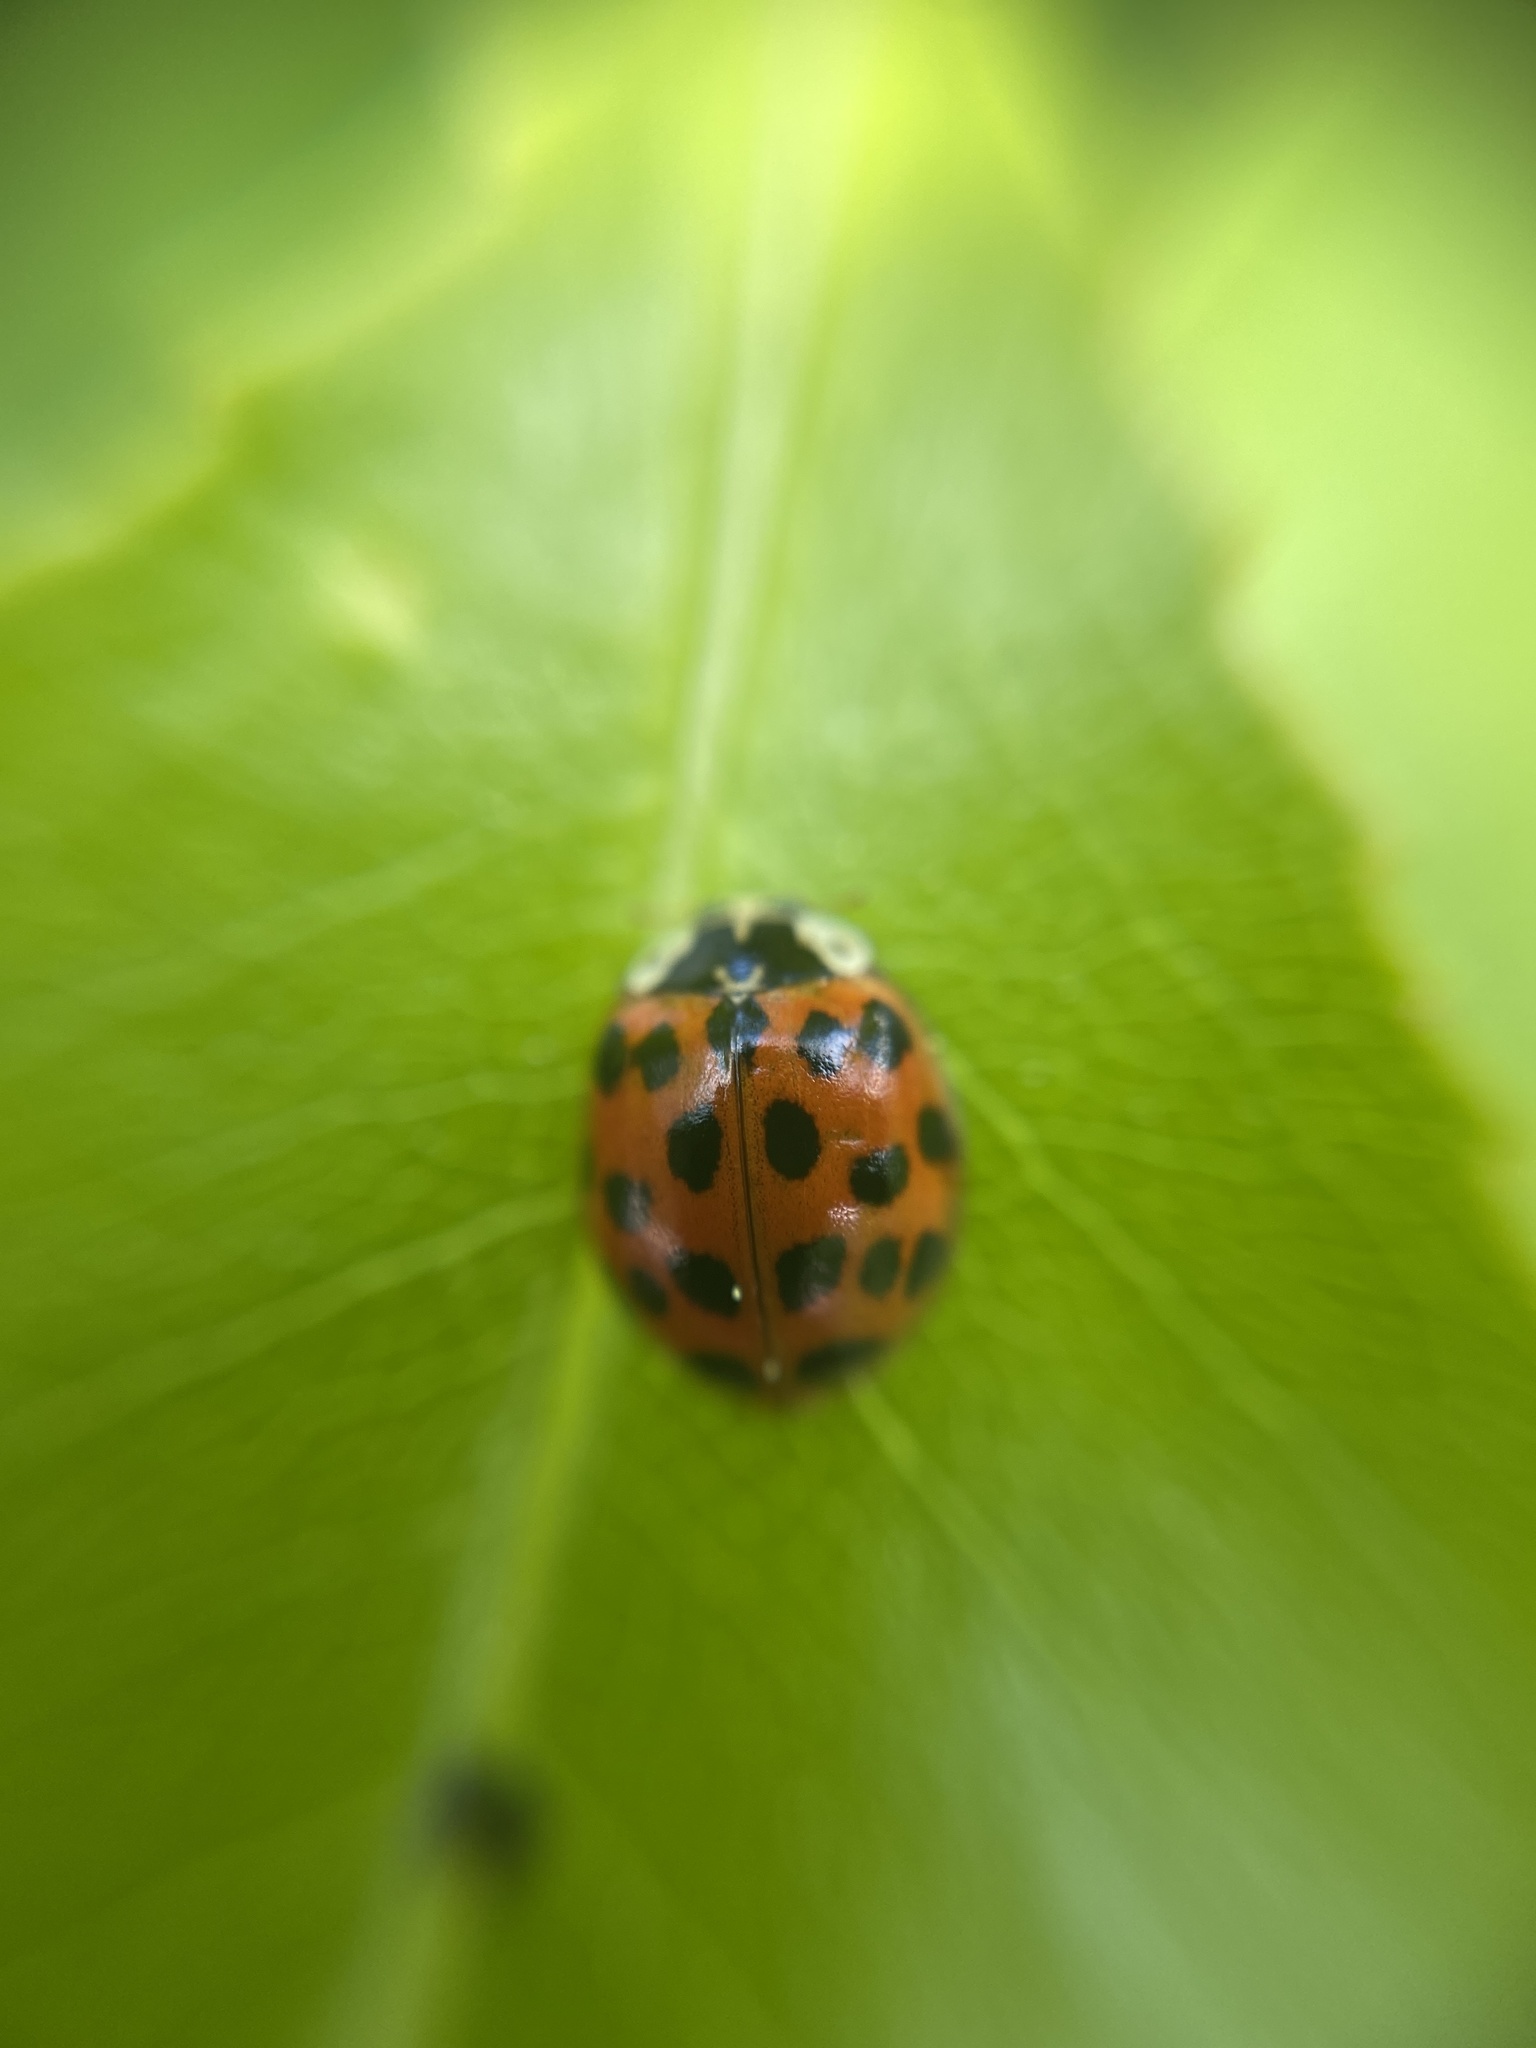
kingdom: Animalia
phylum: Arthropoda
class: Insecta
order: Coleoptera
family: Coccinellidae
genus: Harmonia
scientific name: Harmonia axyridis
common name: Harlequin ladybird
